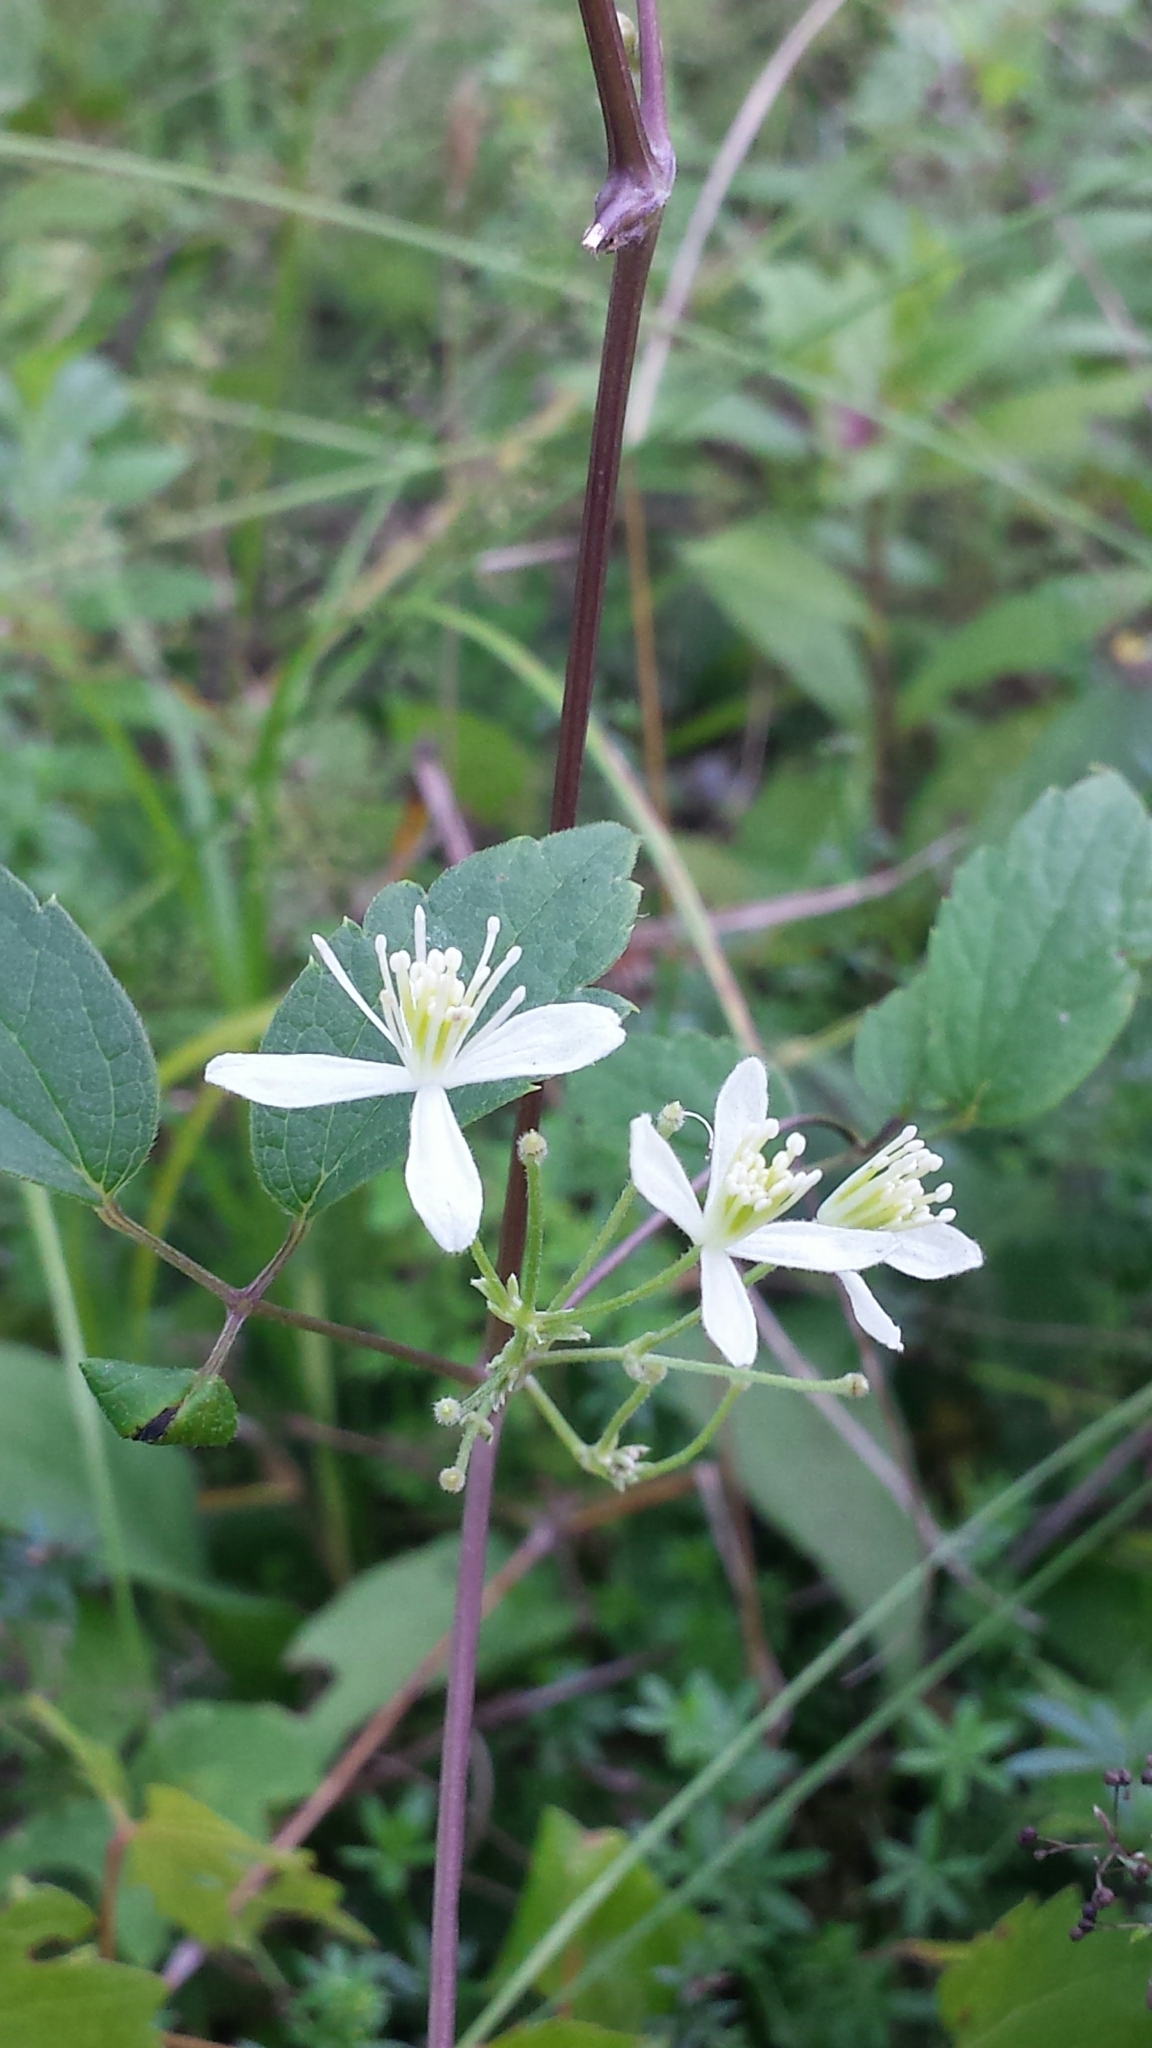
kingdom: Plantae
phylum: Tracheophyta
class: Magnoliopsida
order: Ranunculales
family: Ranunculaceae
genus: Clematis
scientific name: Clematis virginiana
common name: Virgin's-bower
